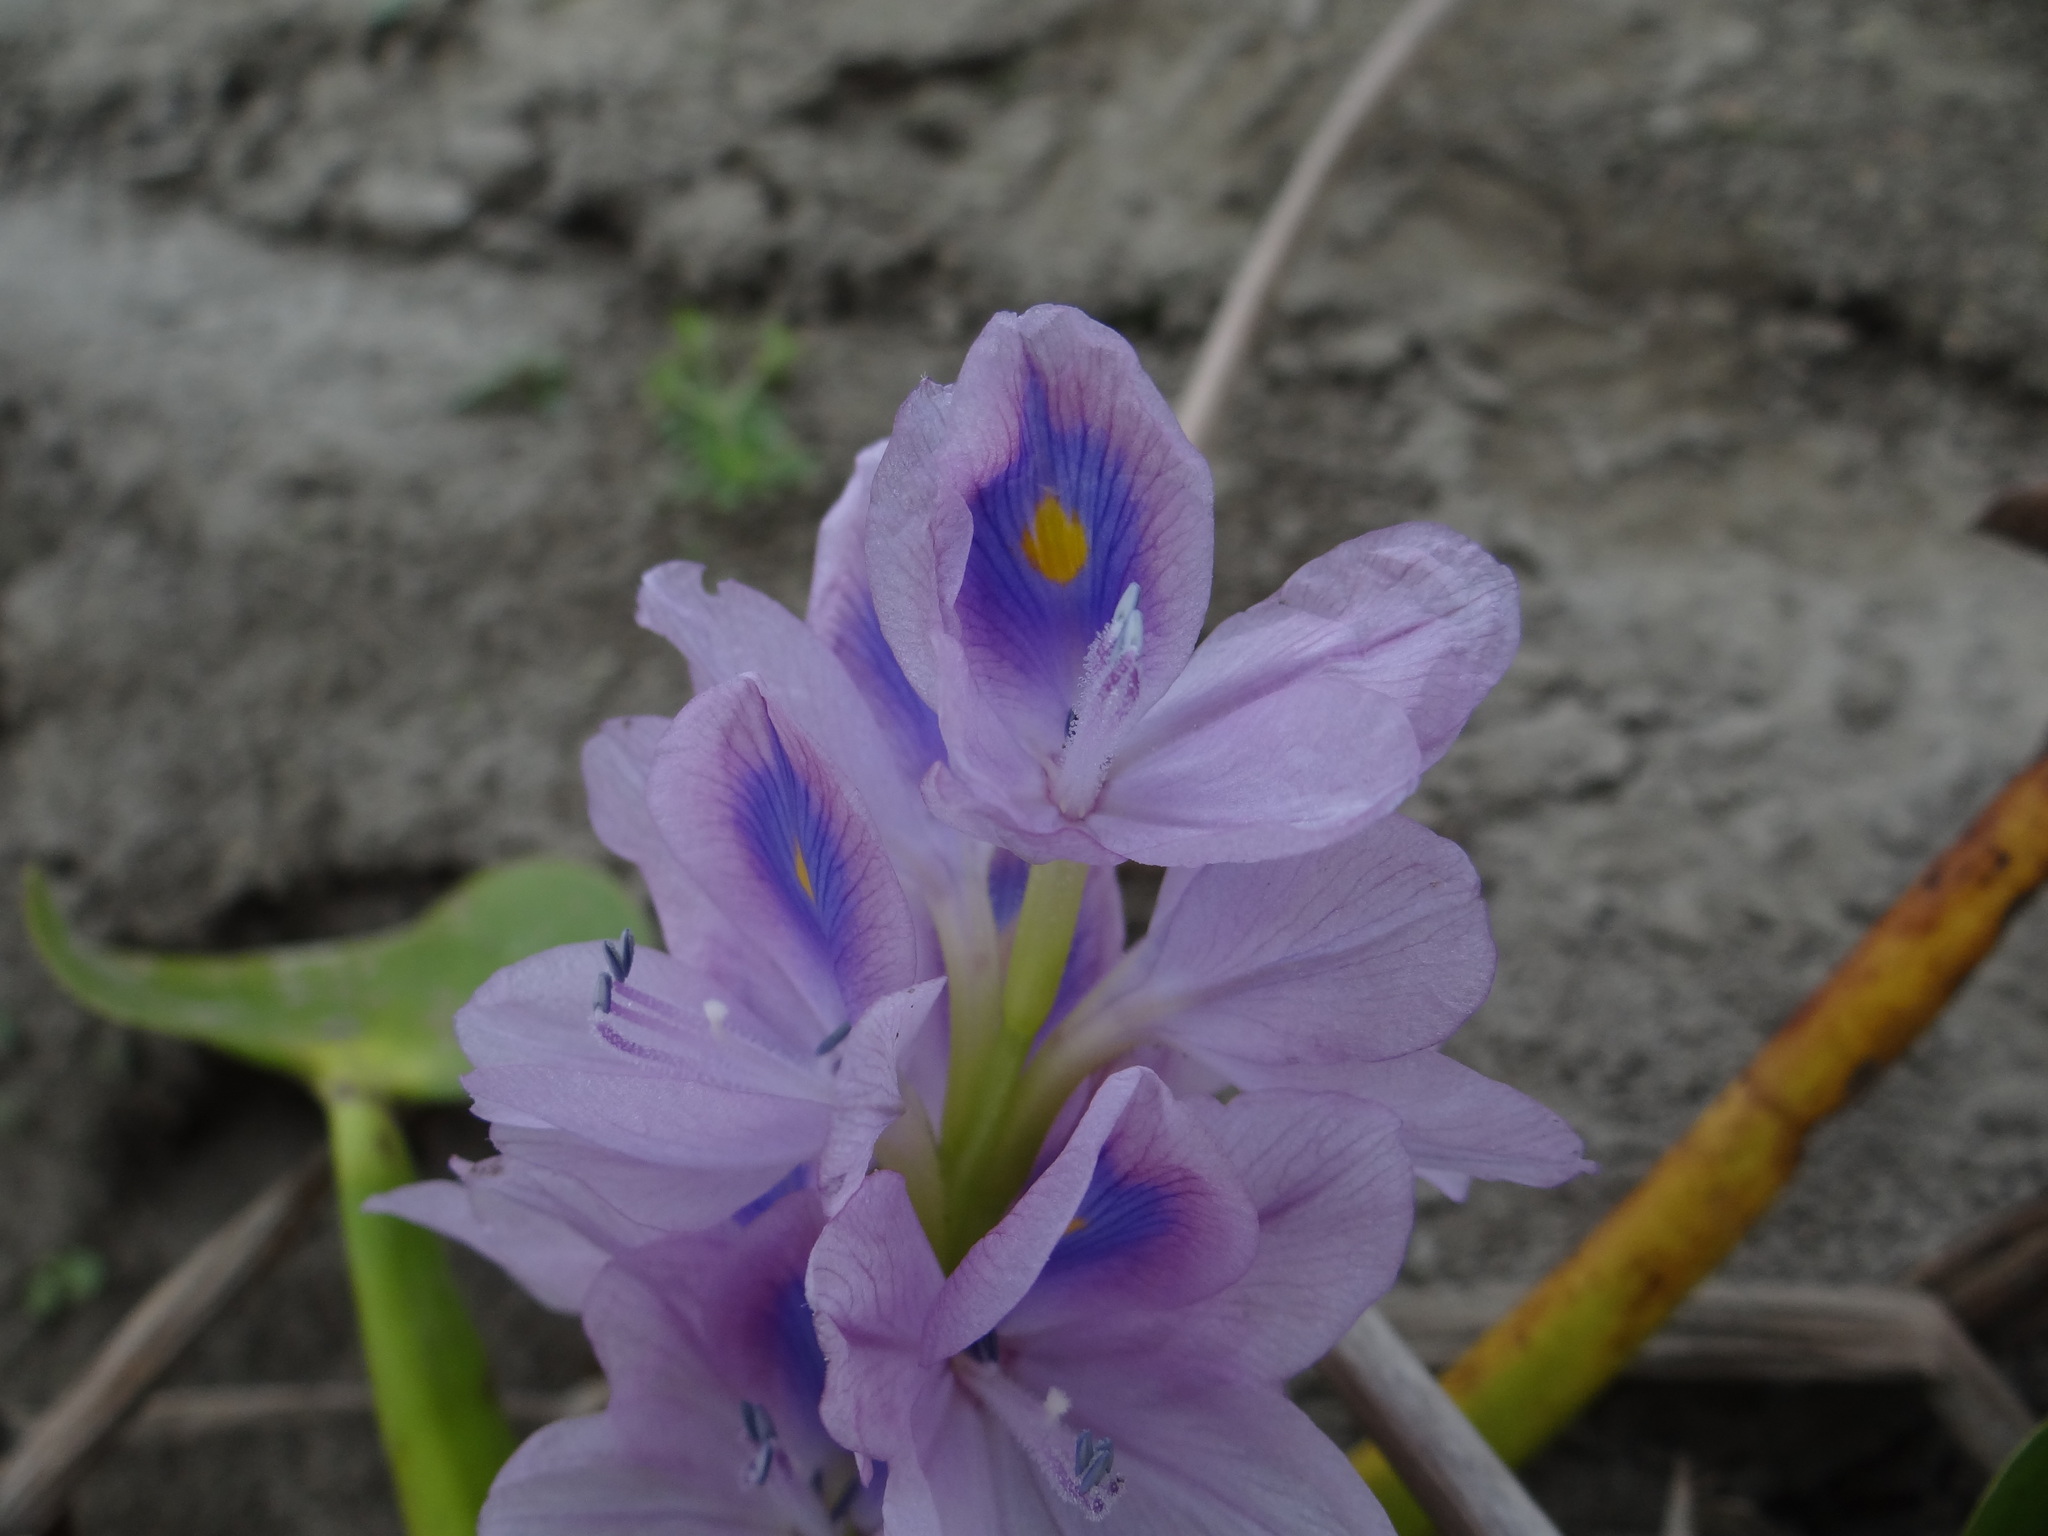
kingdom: Plantae
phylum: Tracheophyta
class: Liliopsida
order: Commelinales
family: Pontederiaceae
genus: Pontederia
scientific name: Pontederia crassipes
